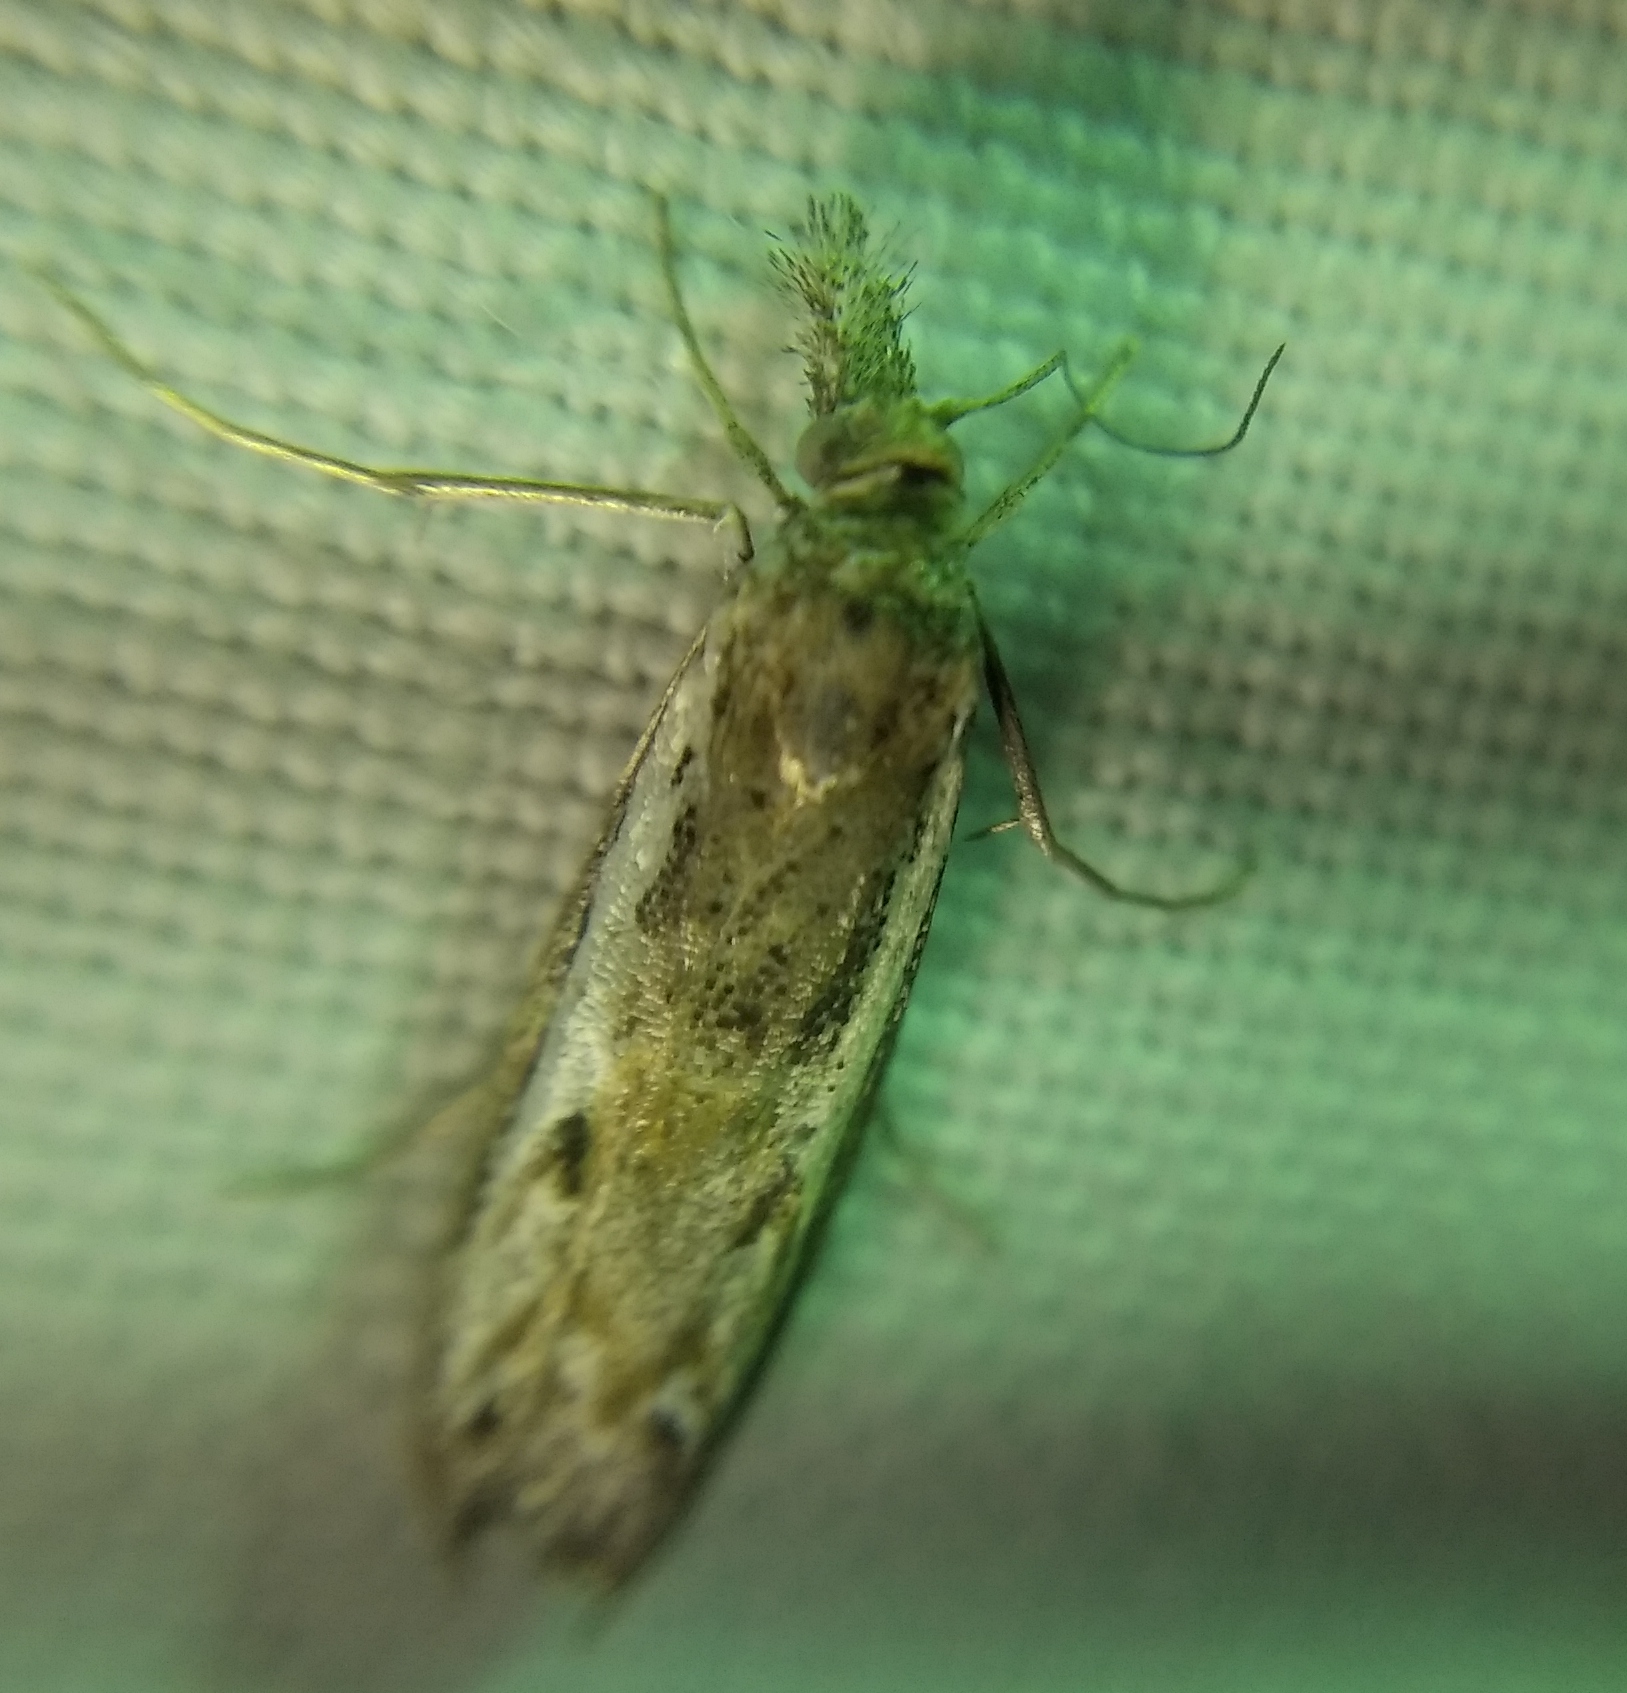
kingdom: Animalia
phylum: Arthropoda
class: Insecta
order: Lepidoptera
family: Crambidae
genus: Platytes
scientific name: Platytes alpinella
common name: Hook-tipped grass-veneer
